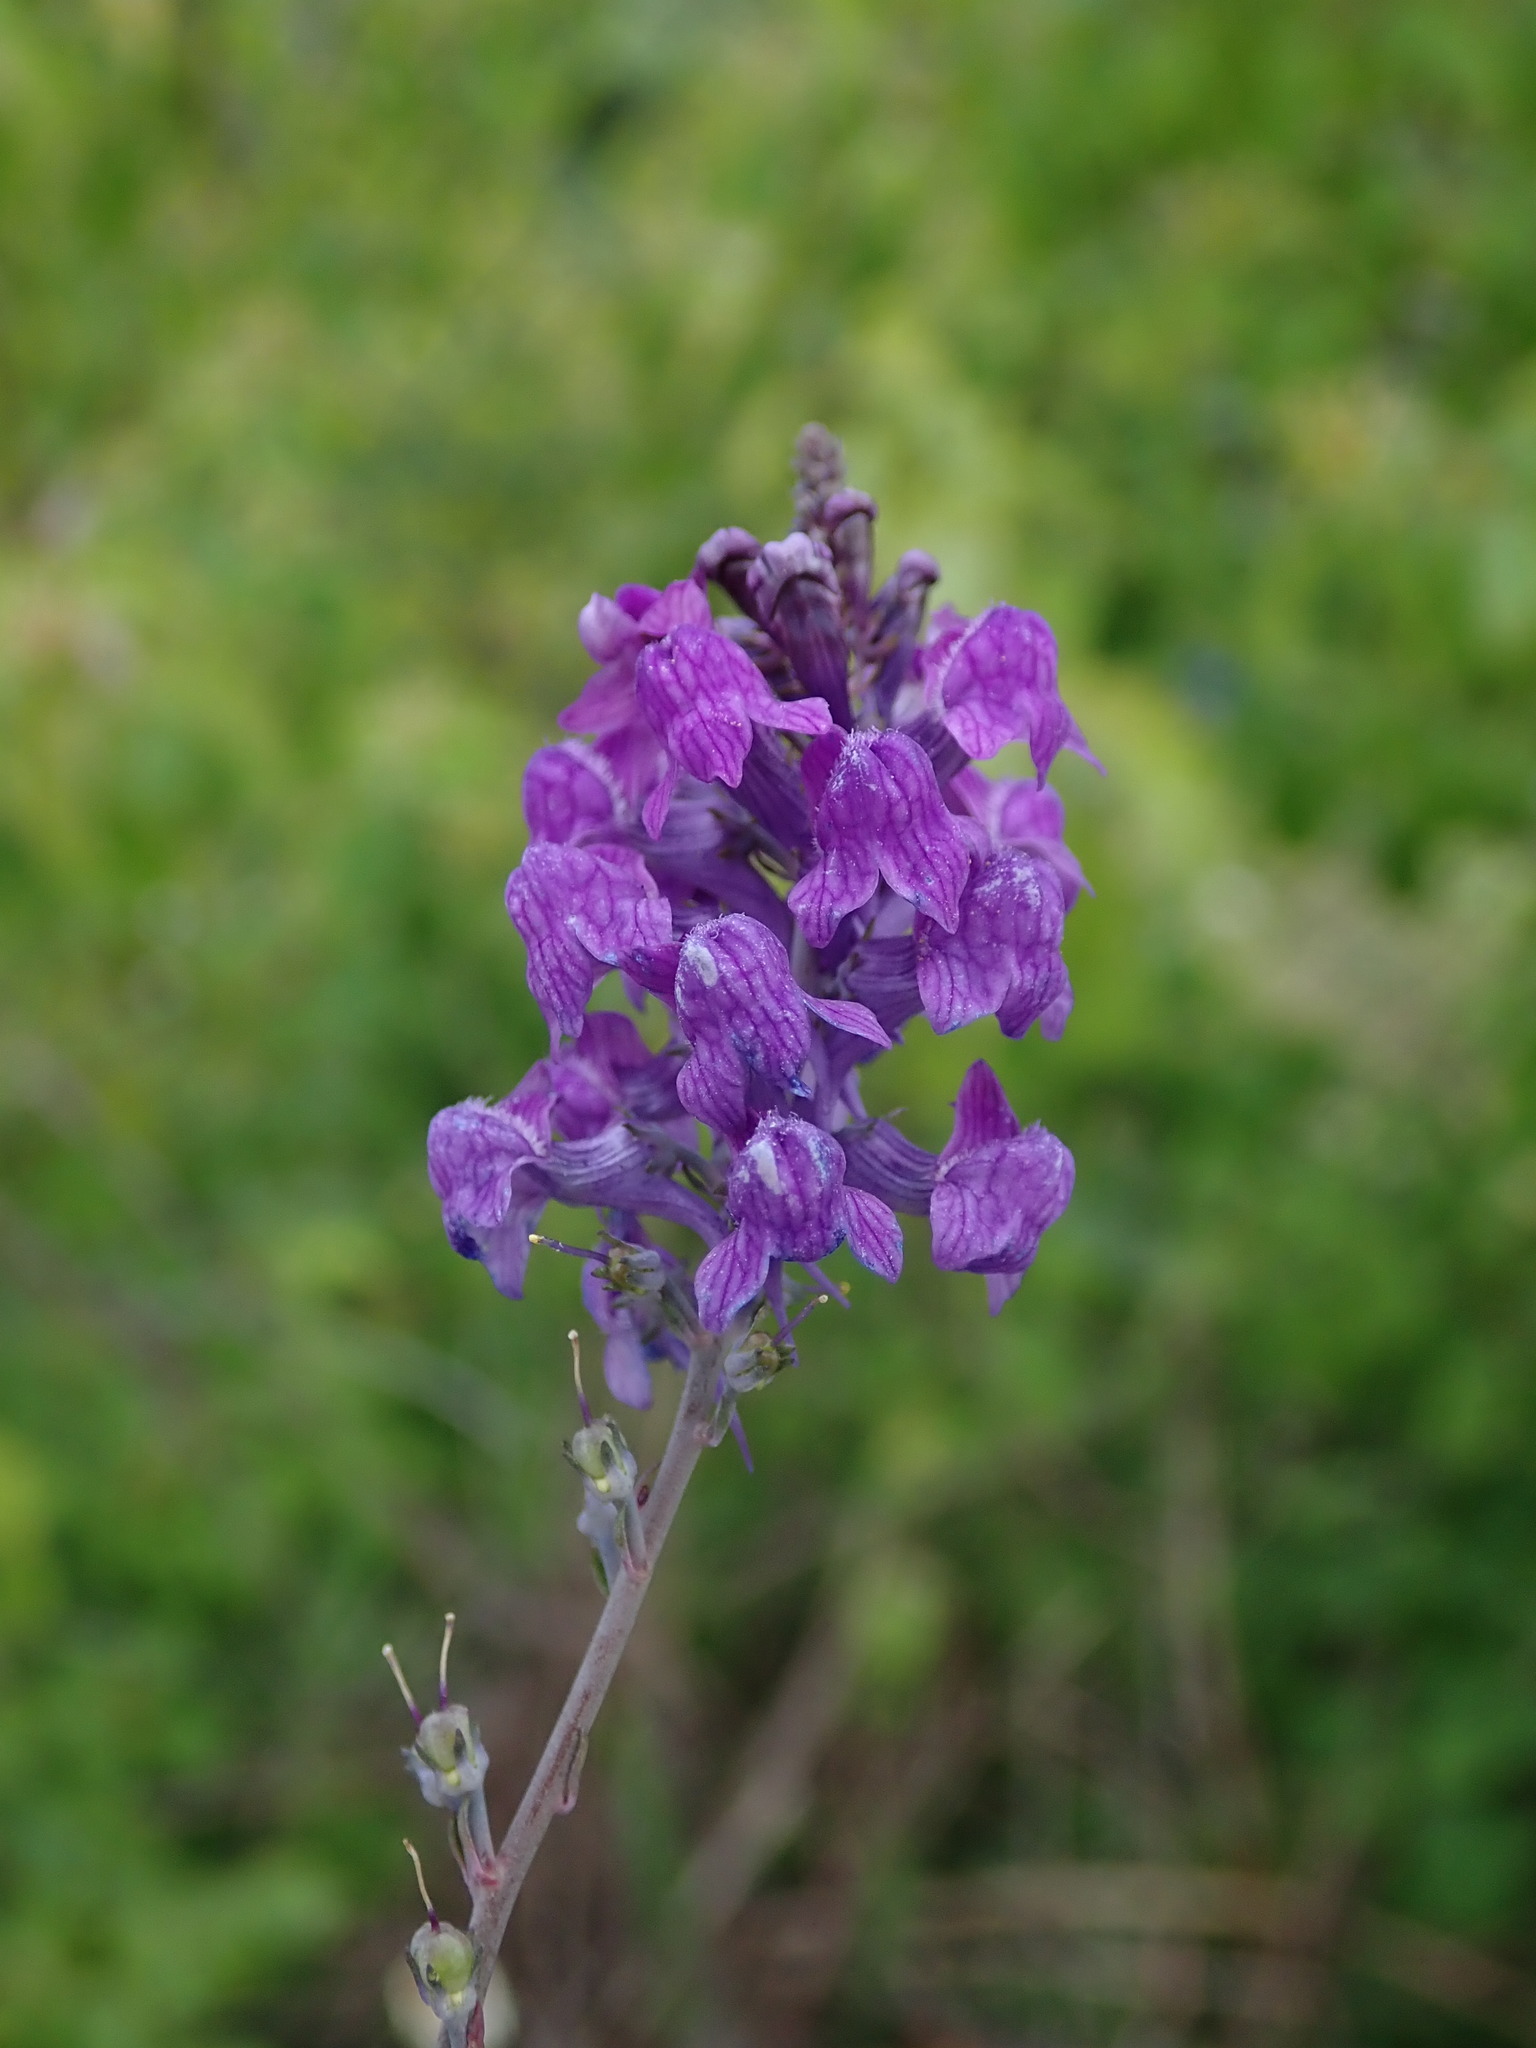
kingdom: Plantae
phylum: Tracheophyta
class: Magnoliopsida
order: Lamiales
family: Plantaginaceae
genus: Linaria
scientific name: Linaria purpurea
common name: Purple toadflax
